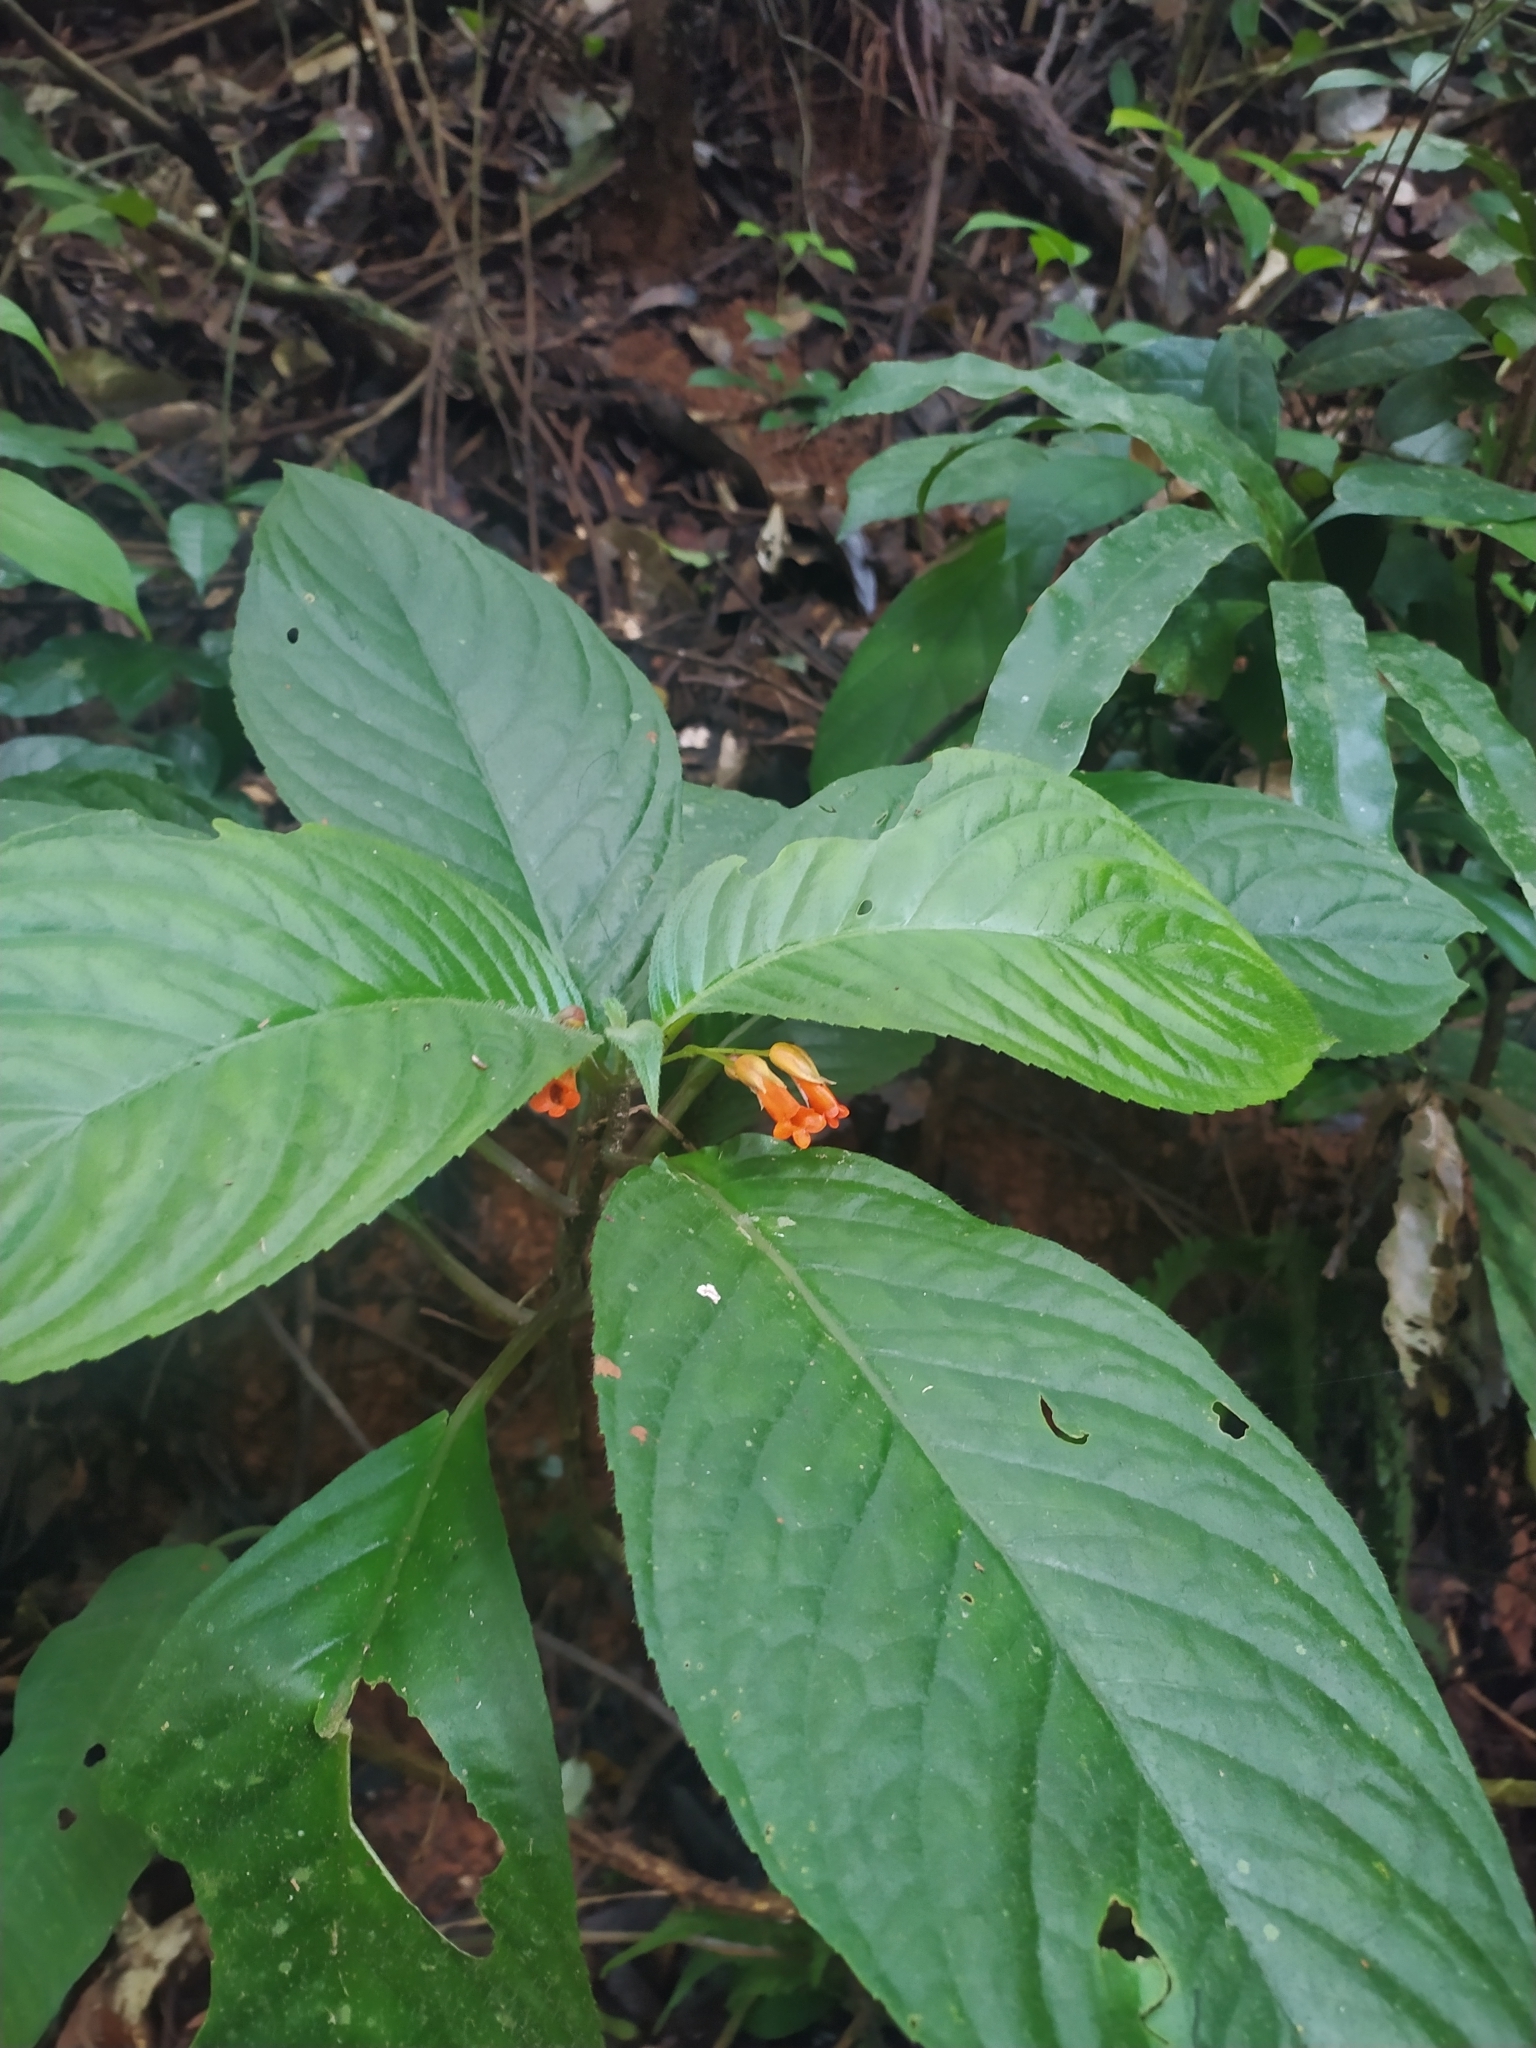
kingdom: Plantae
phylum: Tracheophyta
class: Magnoliopsida
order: Lamiales
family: Gesneriaceae
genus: Besleria
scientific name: Besleria patrisii
